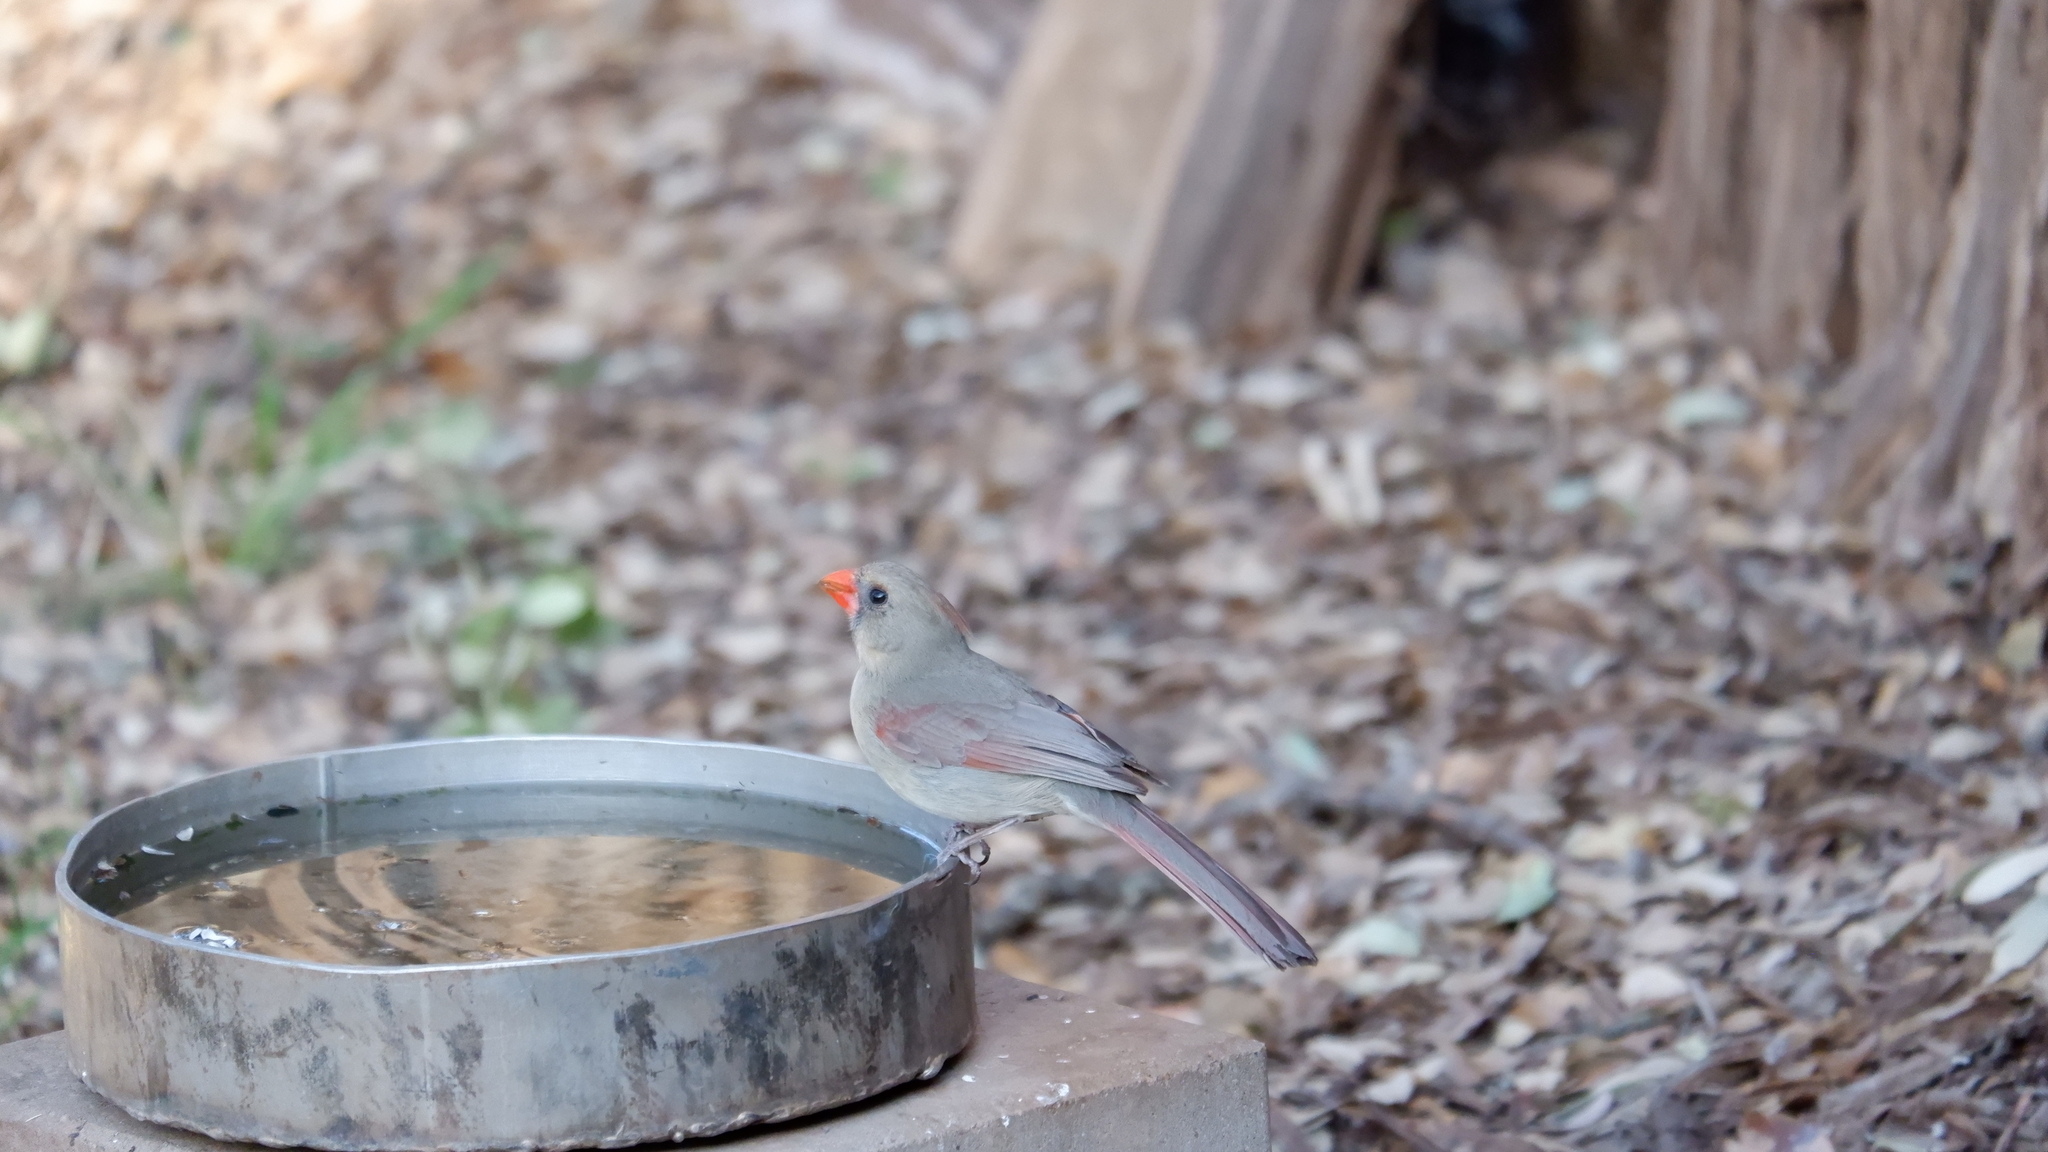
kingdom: Animalia
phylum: Chordata
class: Aves
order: Passeriformes
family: Cardinalidae
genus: Cardinalis
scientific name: Cardinalis cardinalis
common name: Northern cardinal
